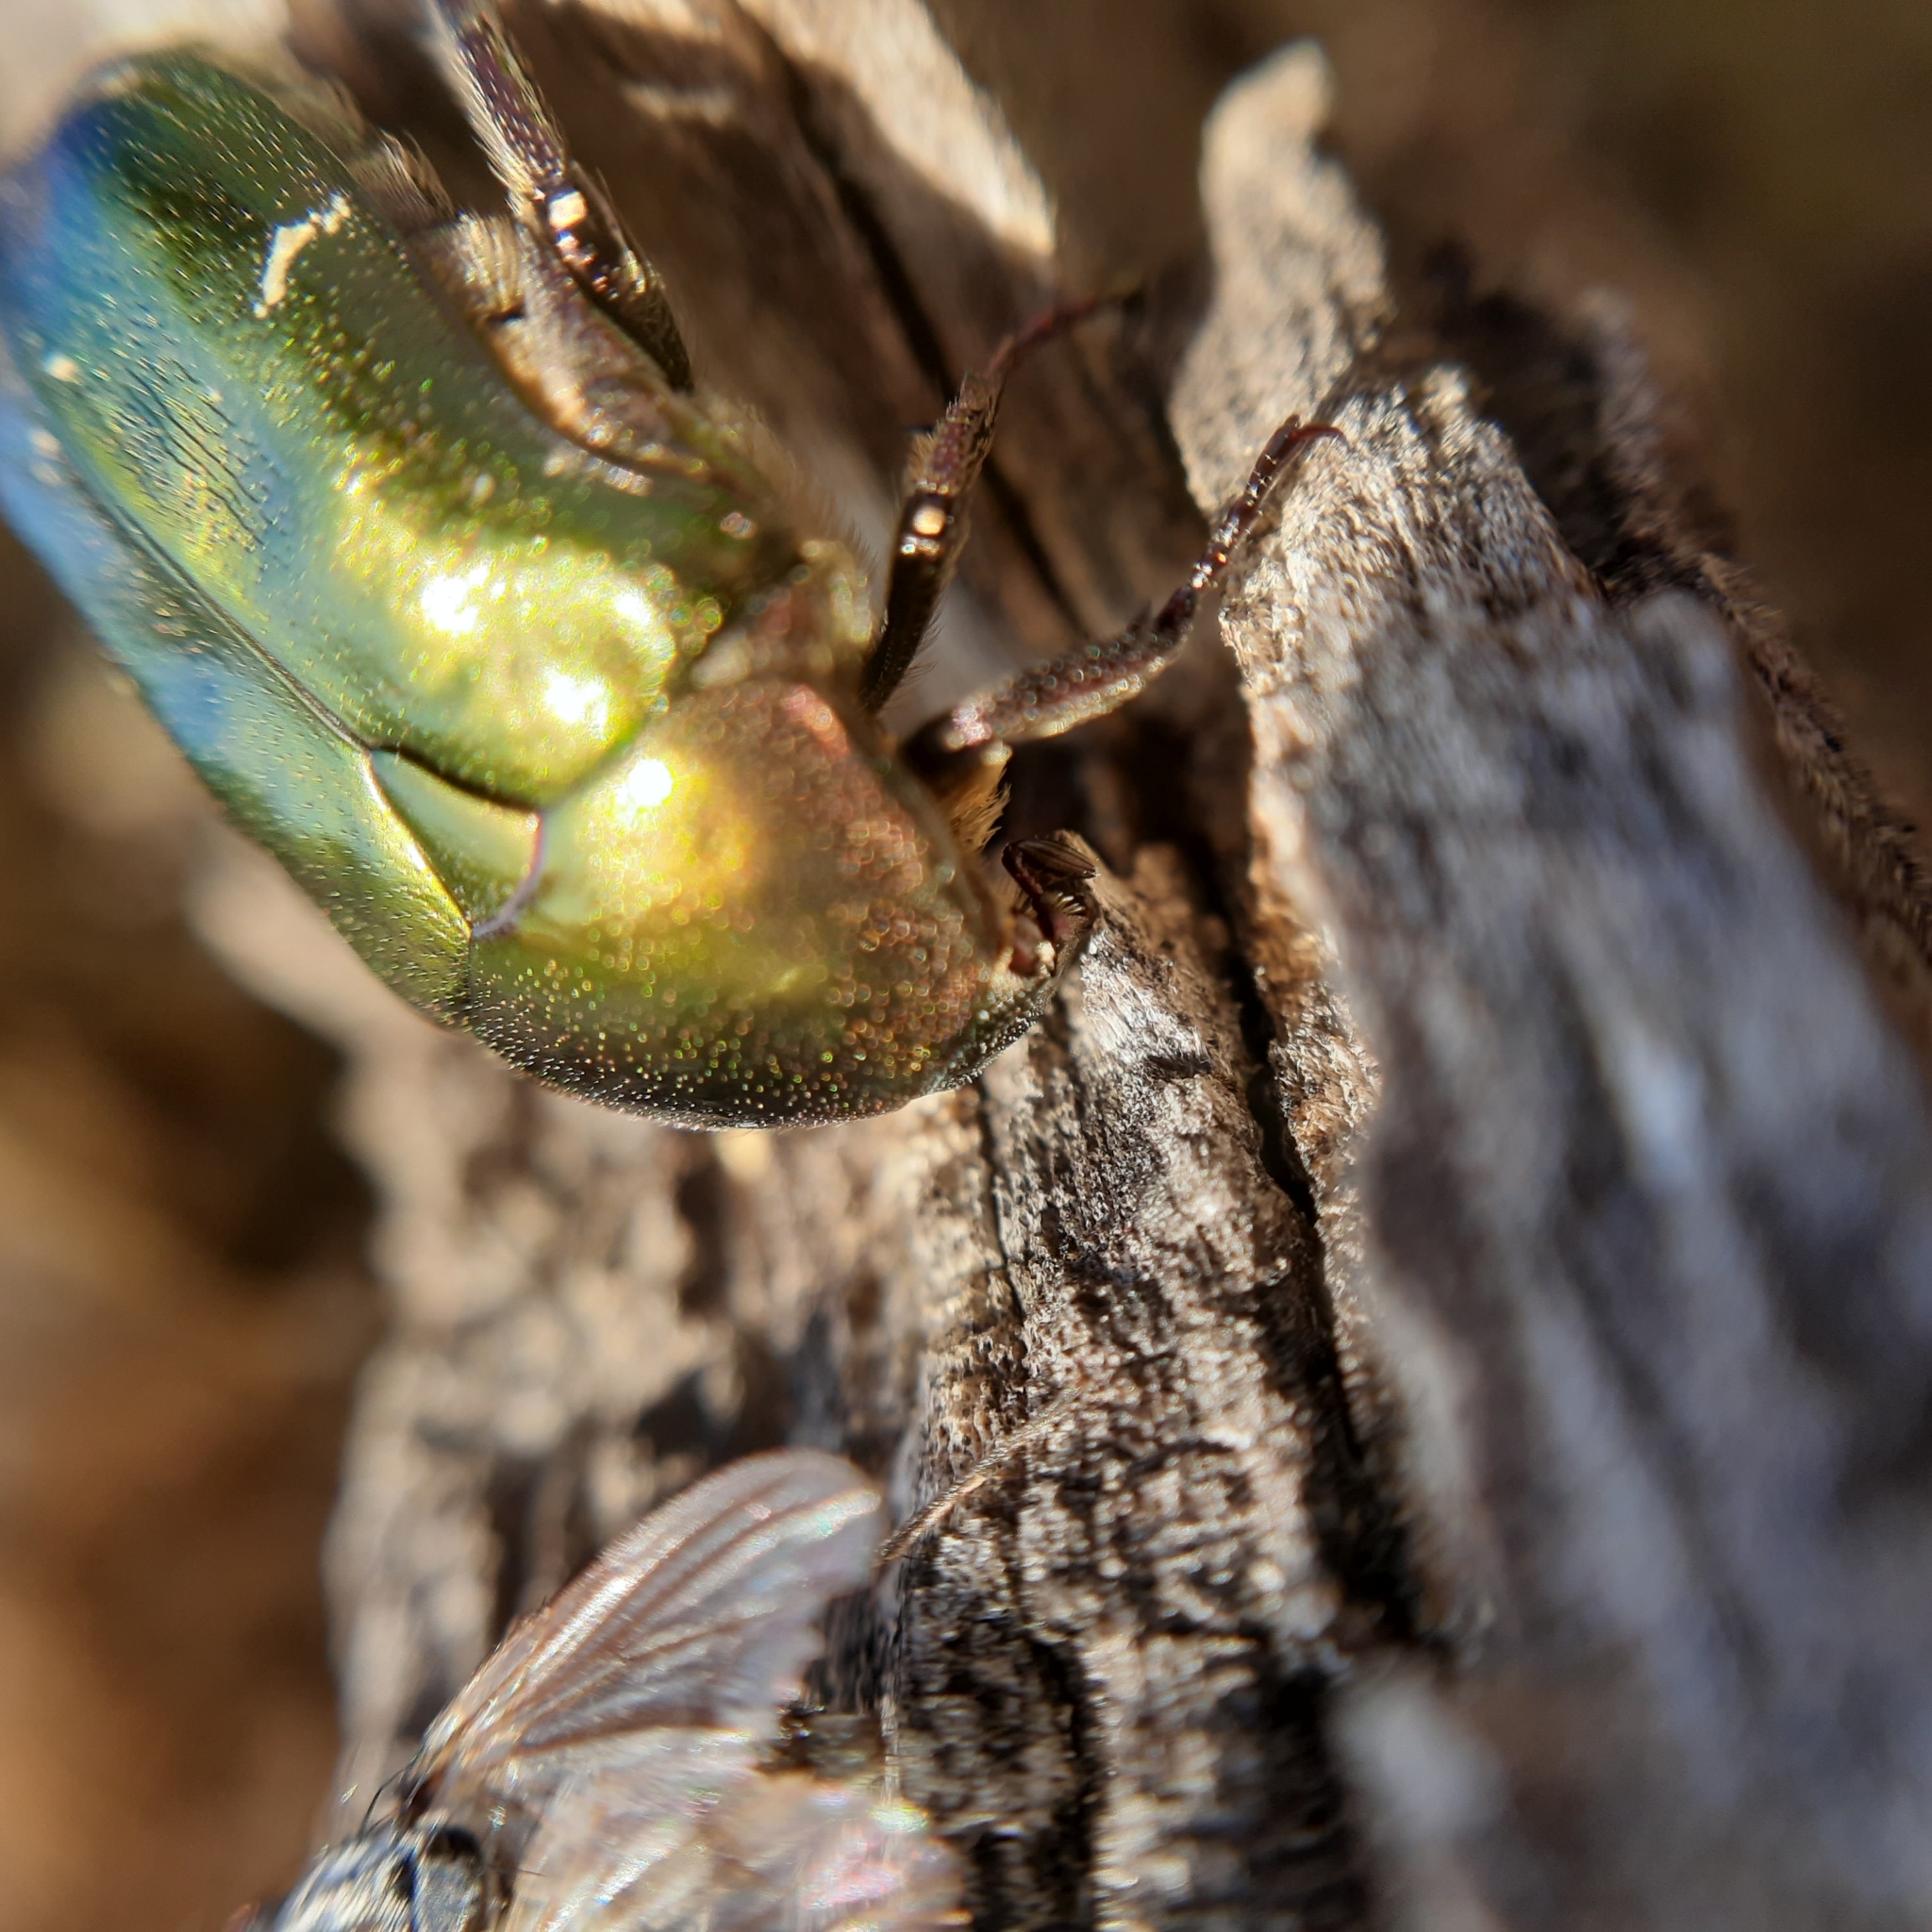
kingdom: Animalia
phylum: Arthropoda
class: Insecta
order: Coleoptera
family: Scarabaeidae
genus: Protaetia
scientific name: Protaetia cuprea
